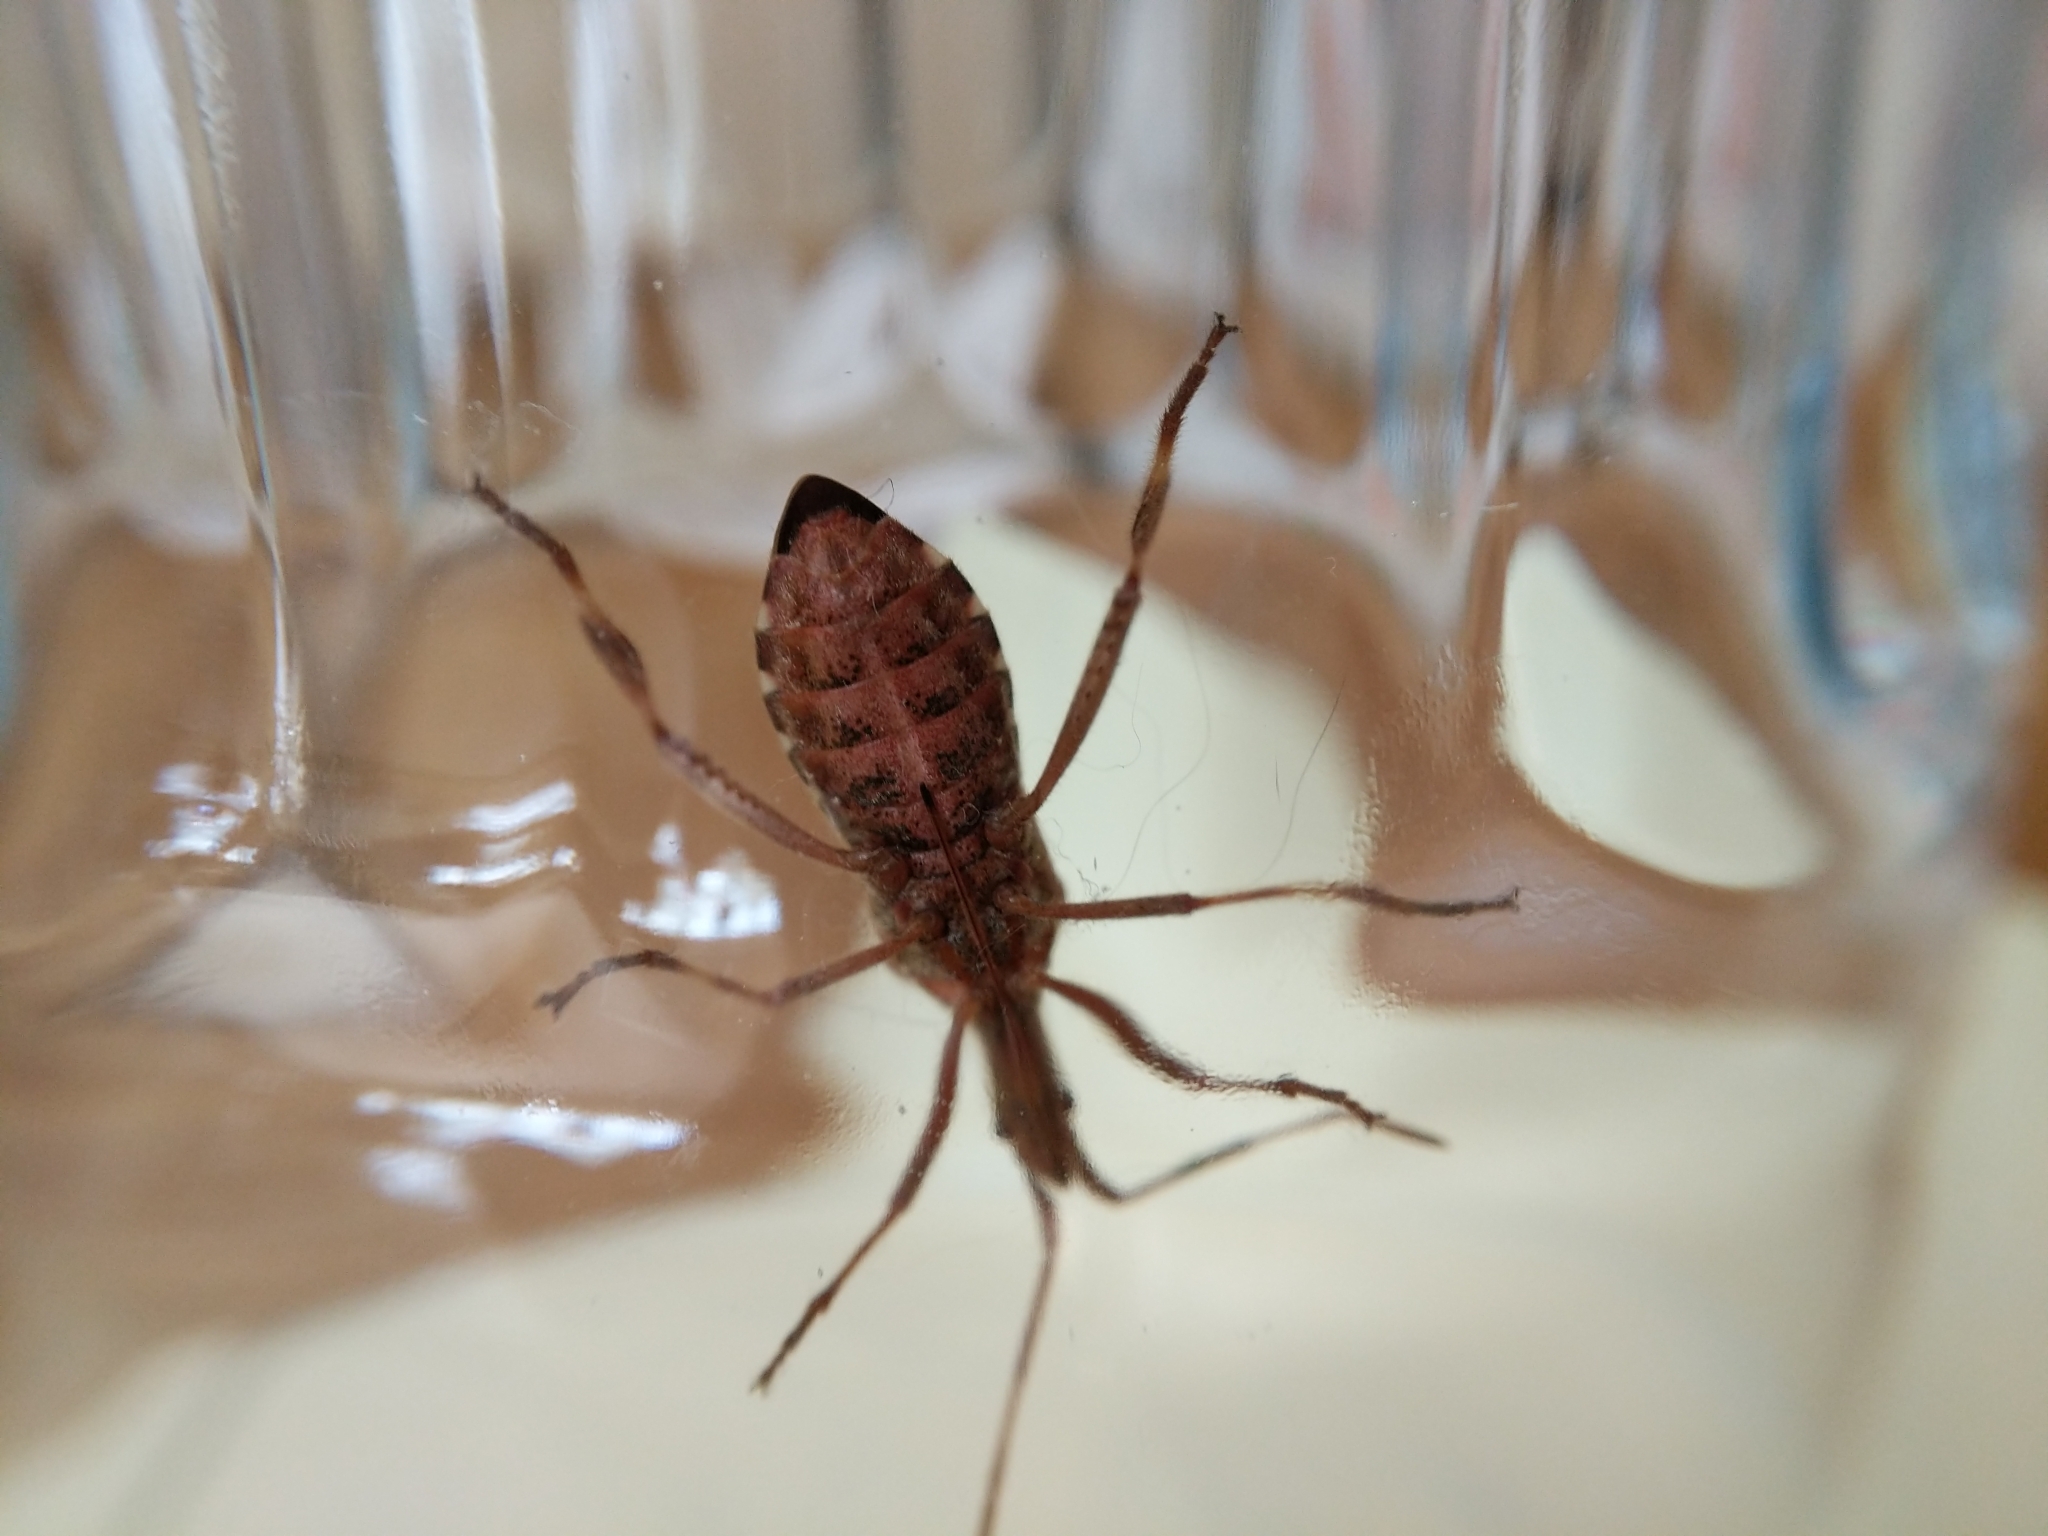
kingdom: Animalia
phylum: Arthropoda
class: Insecta
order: Hemiptera
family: Coreidae
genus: Leptoglossus
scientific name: Leptoglossus occidentalis
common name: Western conifer-seed bug
